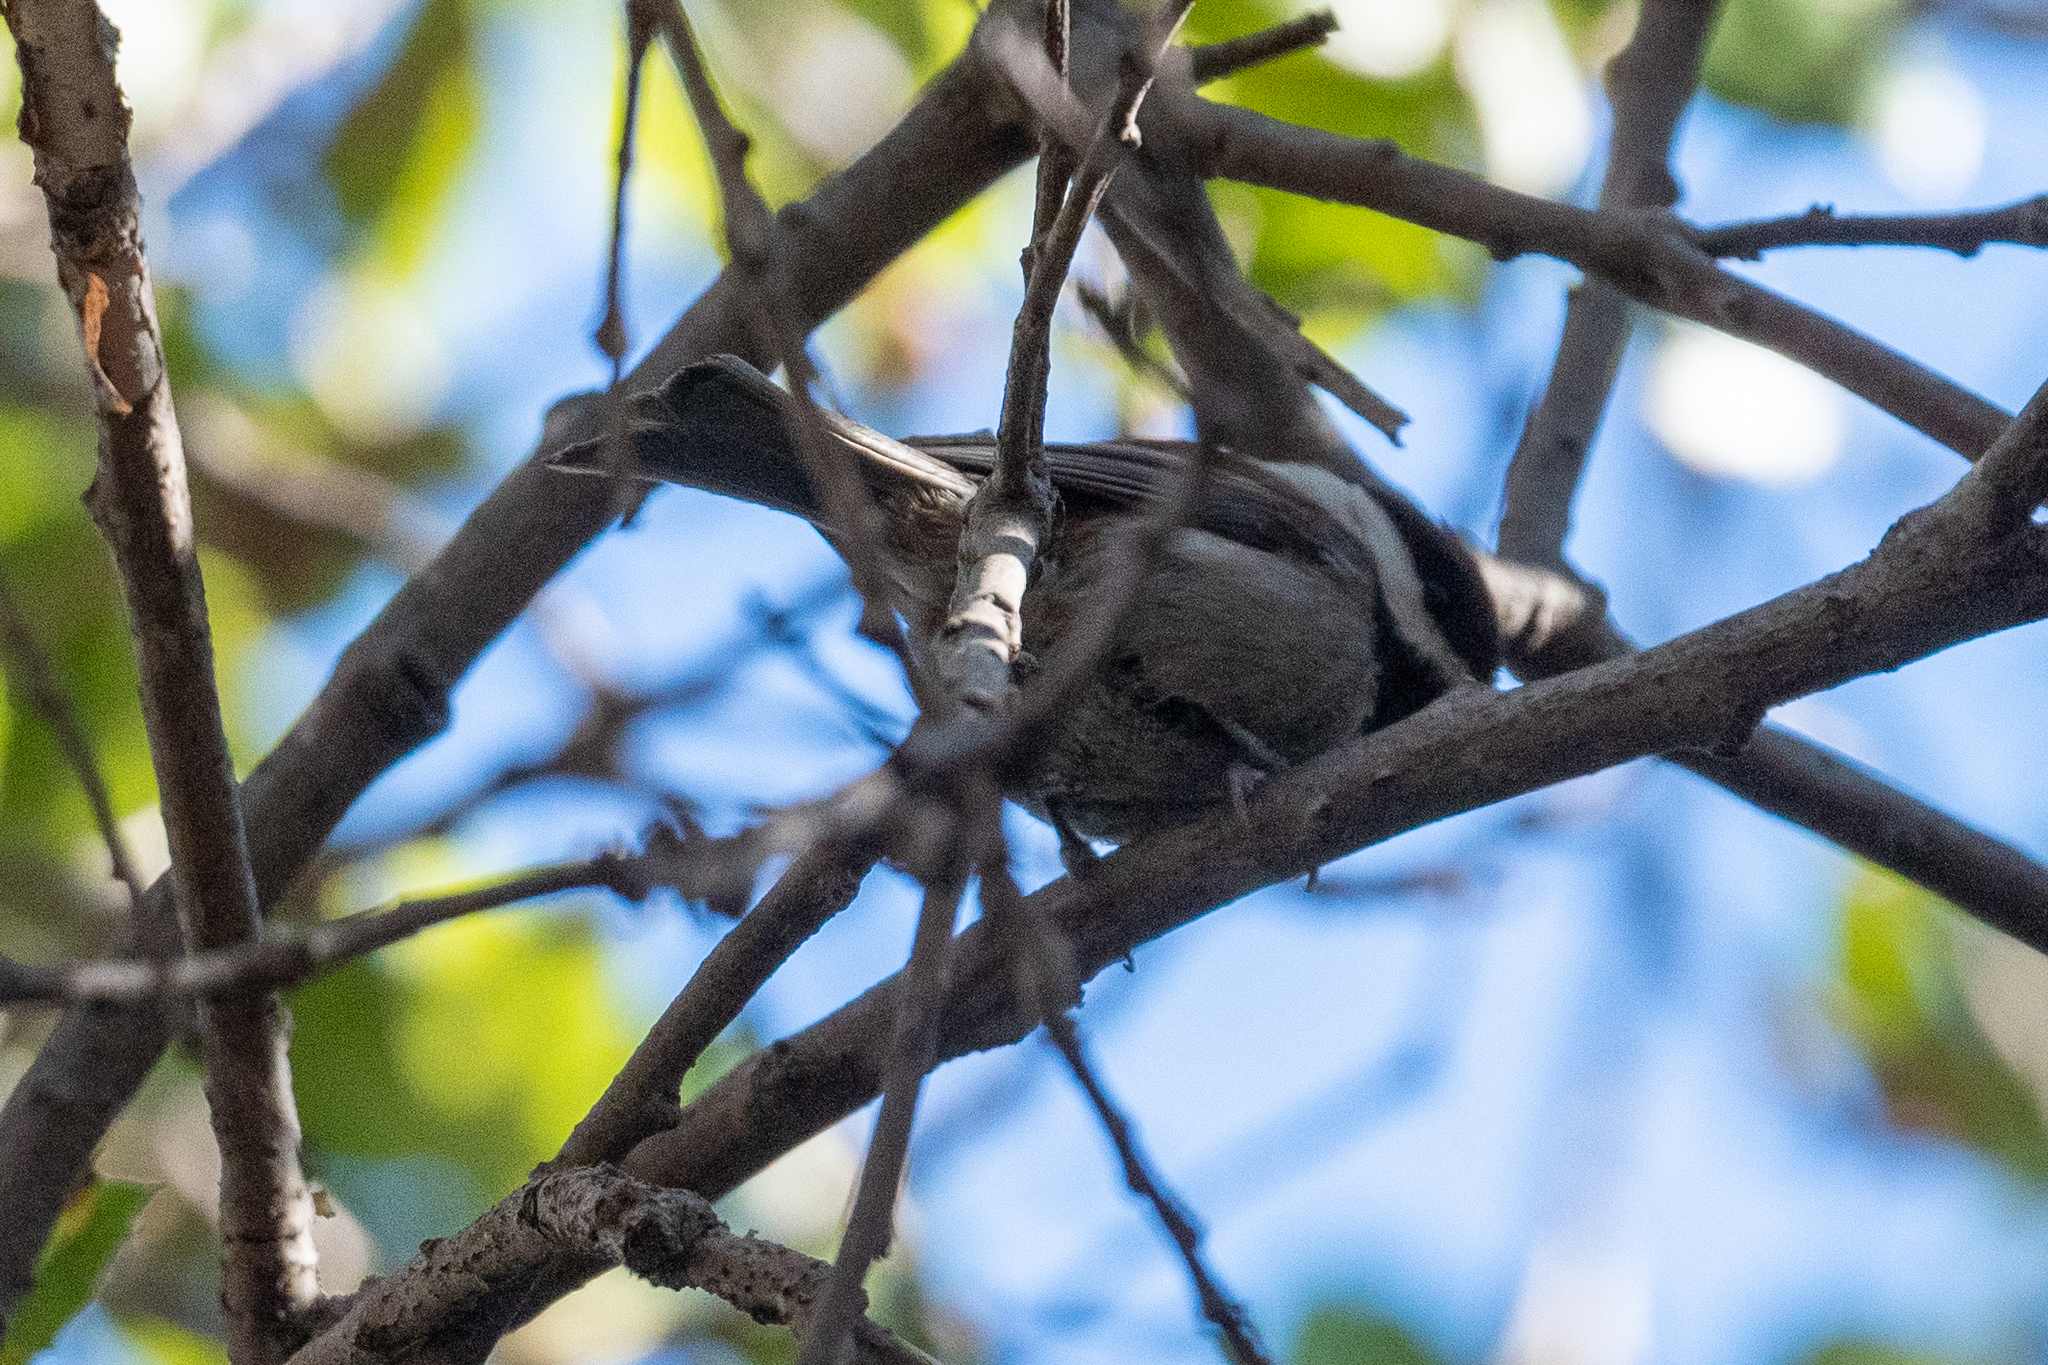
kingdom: Animalia
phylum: Chordata
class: Aves
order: Passeriformes
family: Paridae
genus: Poecile
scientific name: Poecile rufescens
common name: Chestnut-backed chickadee
